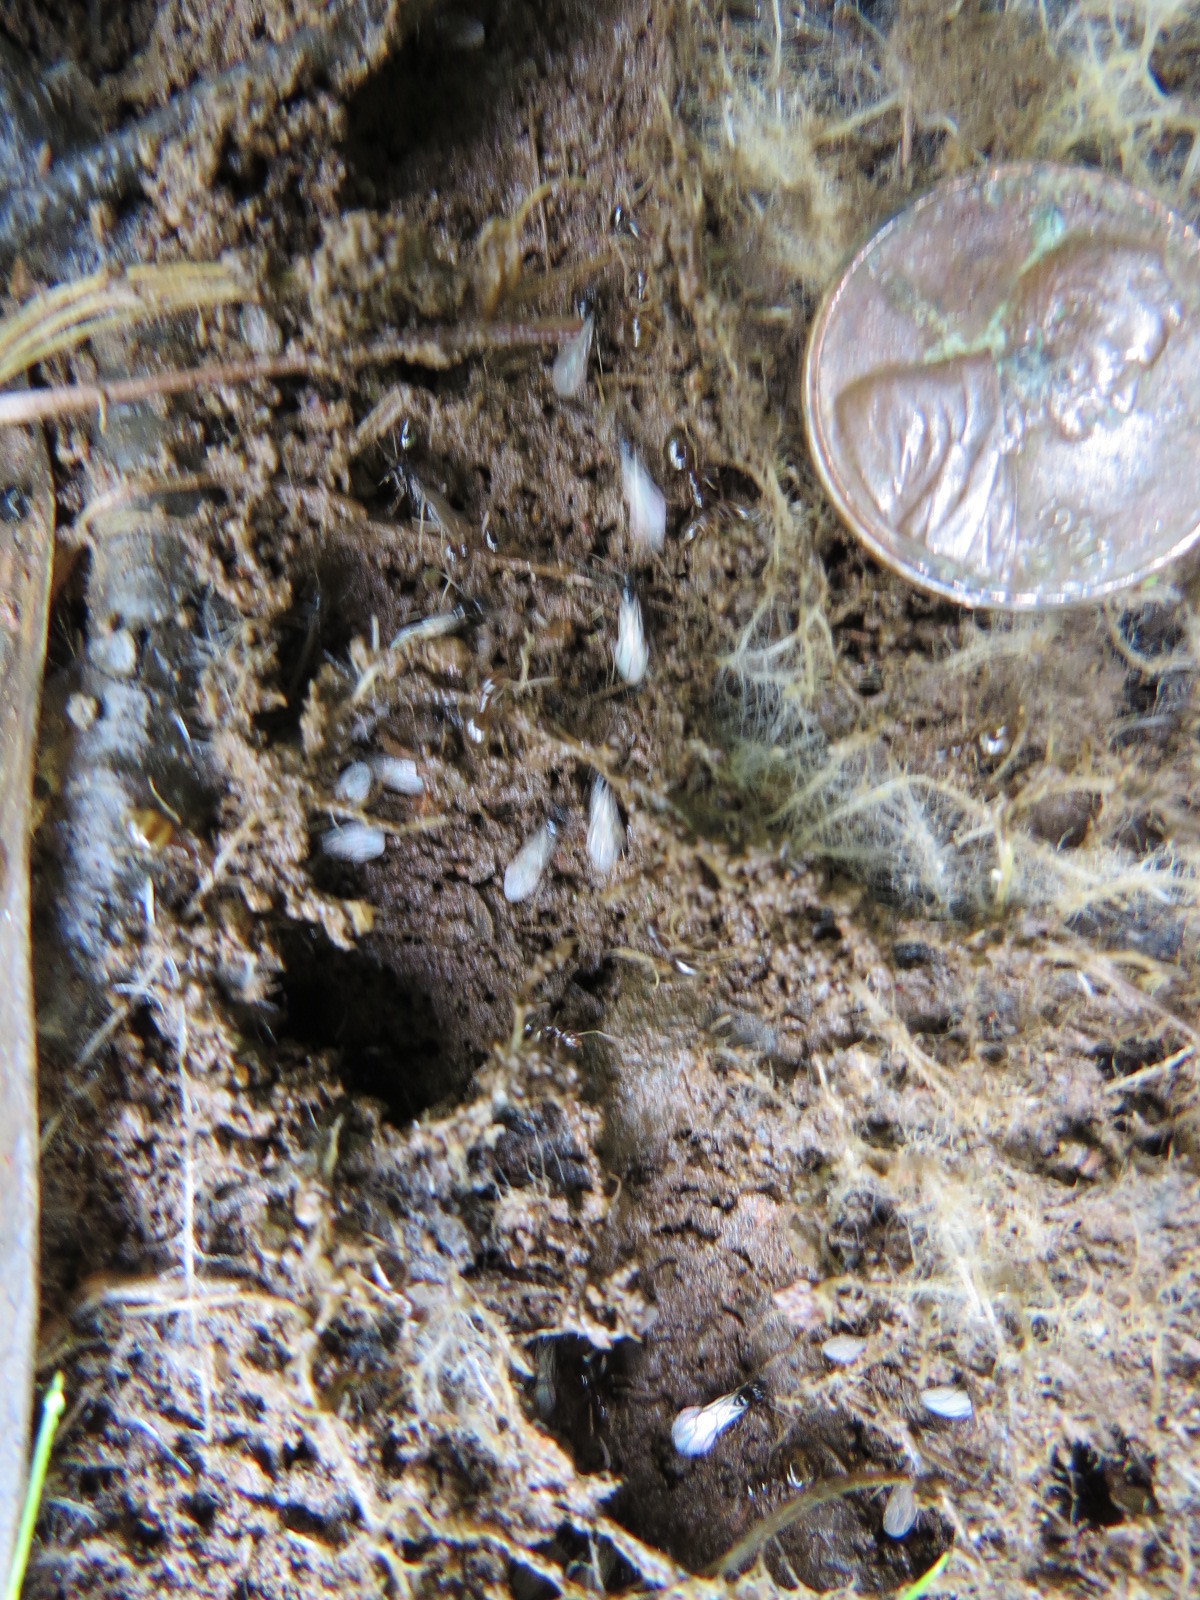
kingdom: Animalia
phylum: Arthropoda
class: Insecta
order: Hymenoptera
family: Formicidae
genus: Prenolepis
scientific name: Prenolepis imparis
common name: Small honey ant
